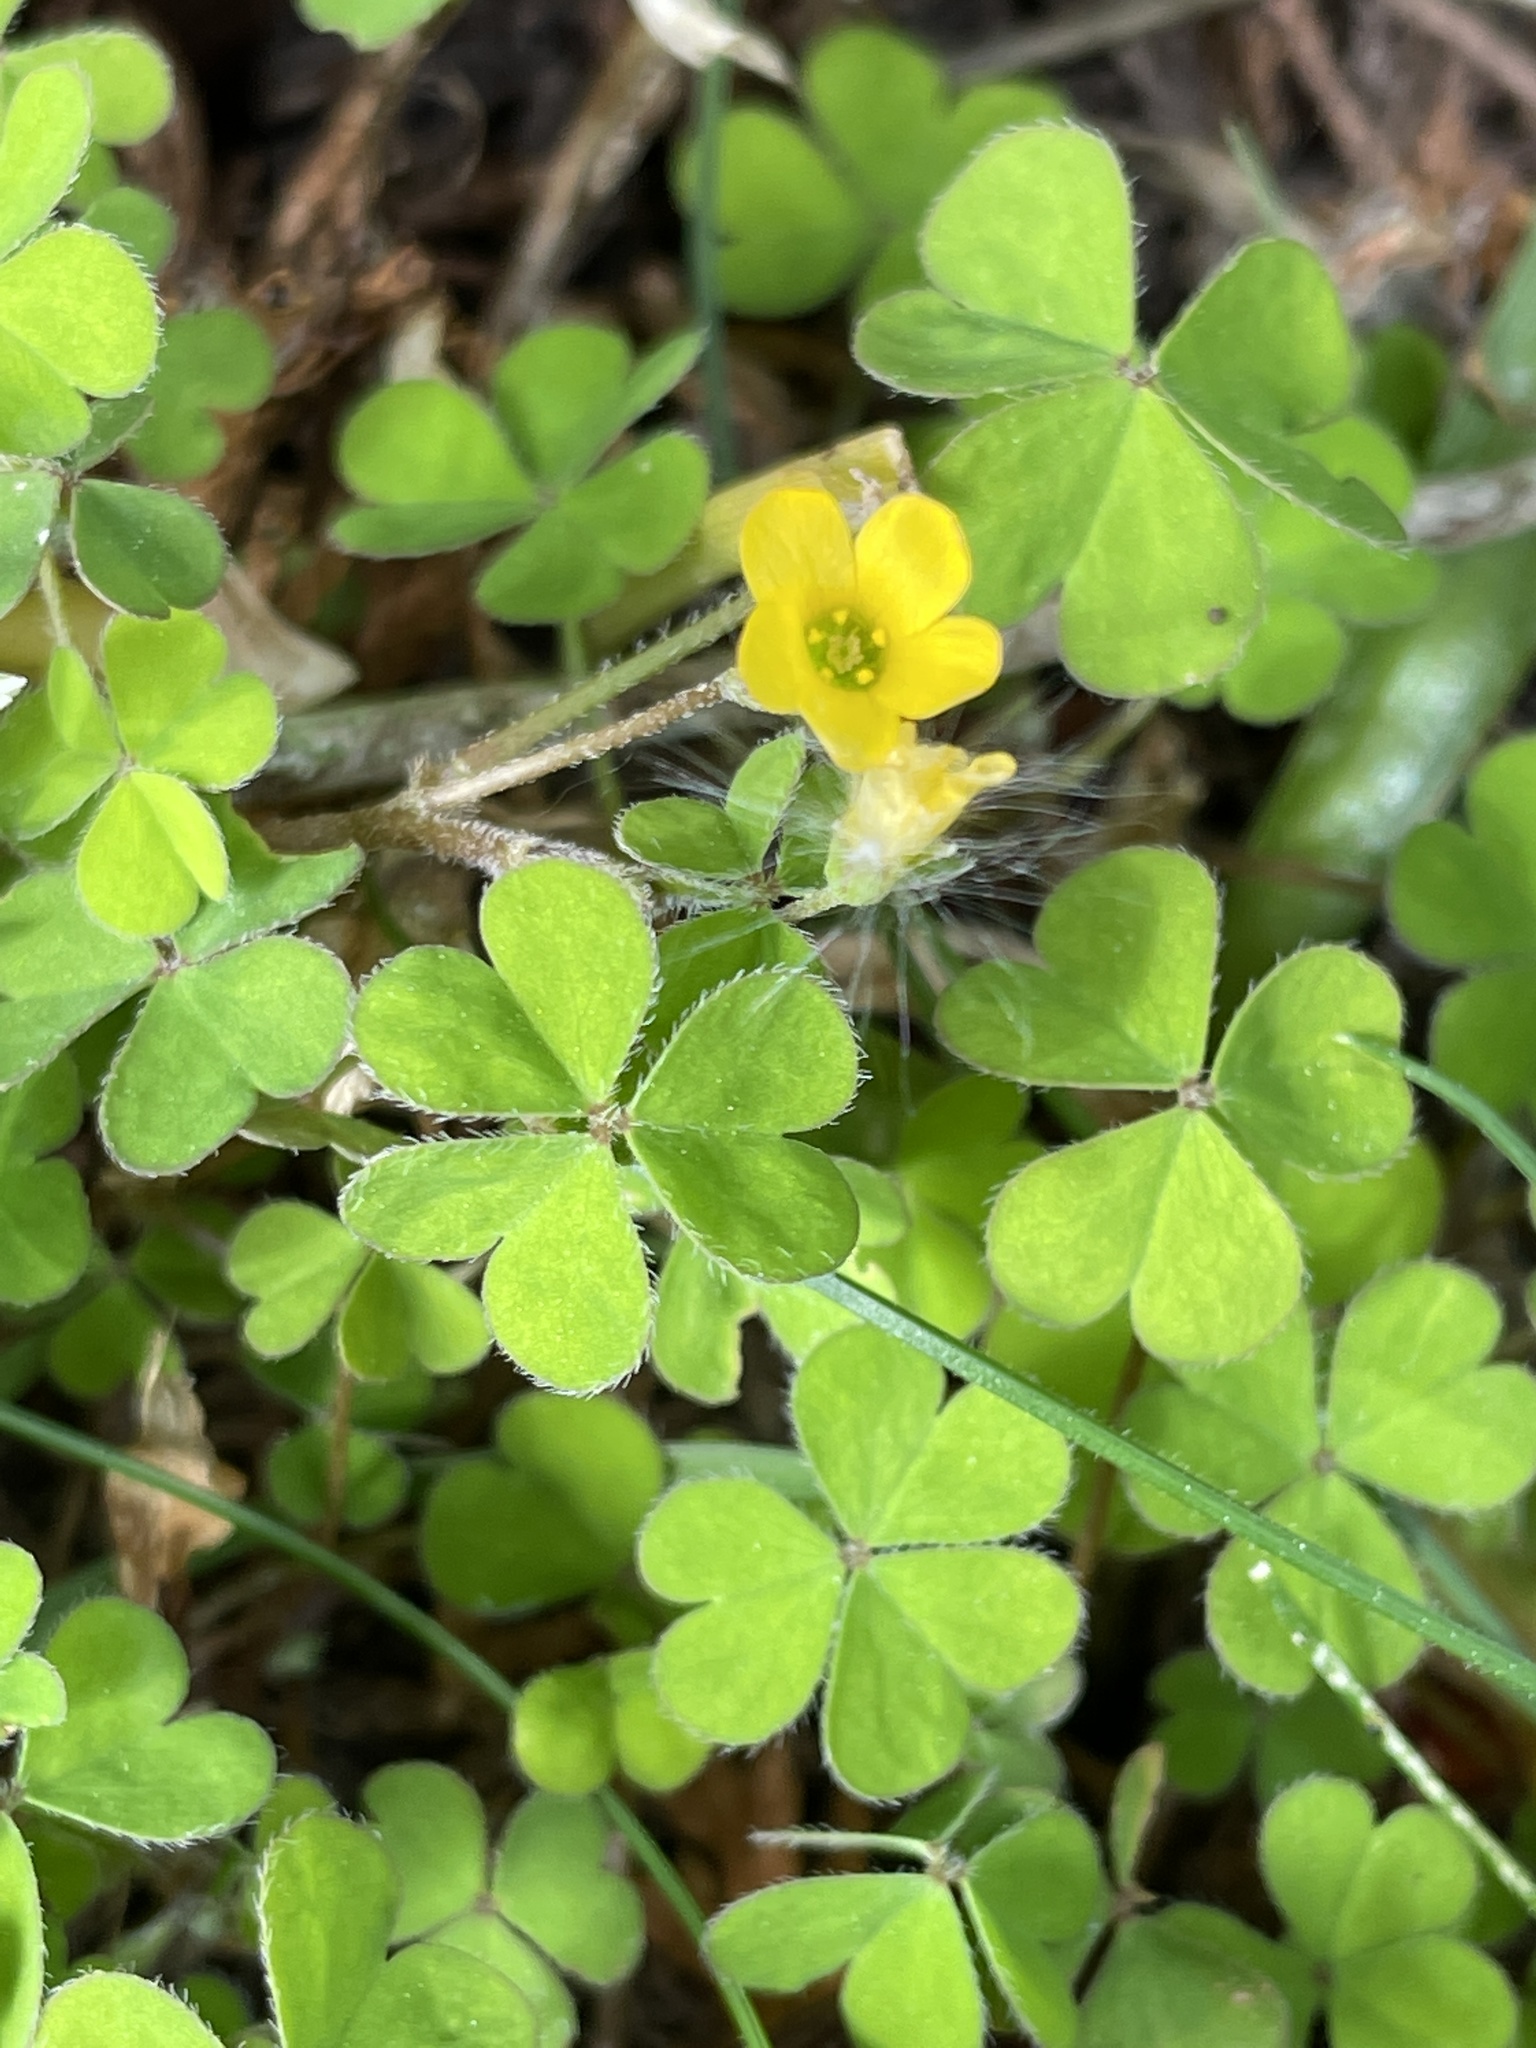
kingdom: Plantae
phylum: Tracheophyta
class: Magnoliopsida
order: Oxalidales
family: Oxalidaceae
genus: Oxalis
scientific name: Oxalis exilis
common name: Least yellow-sorrel
